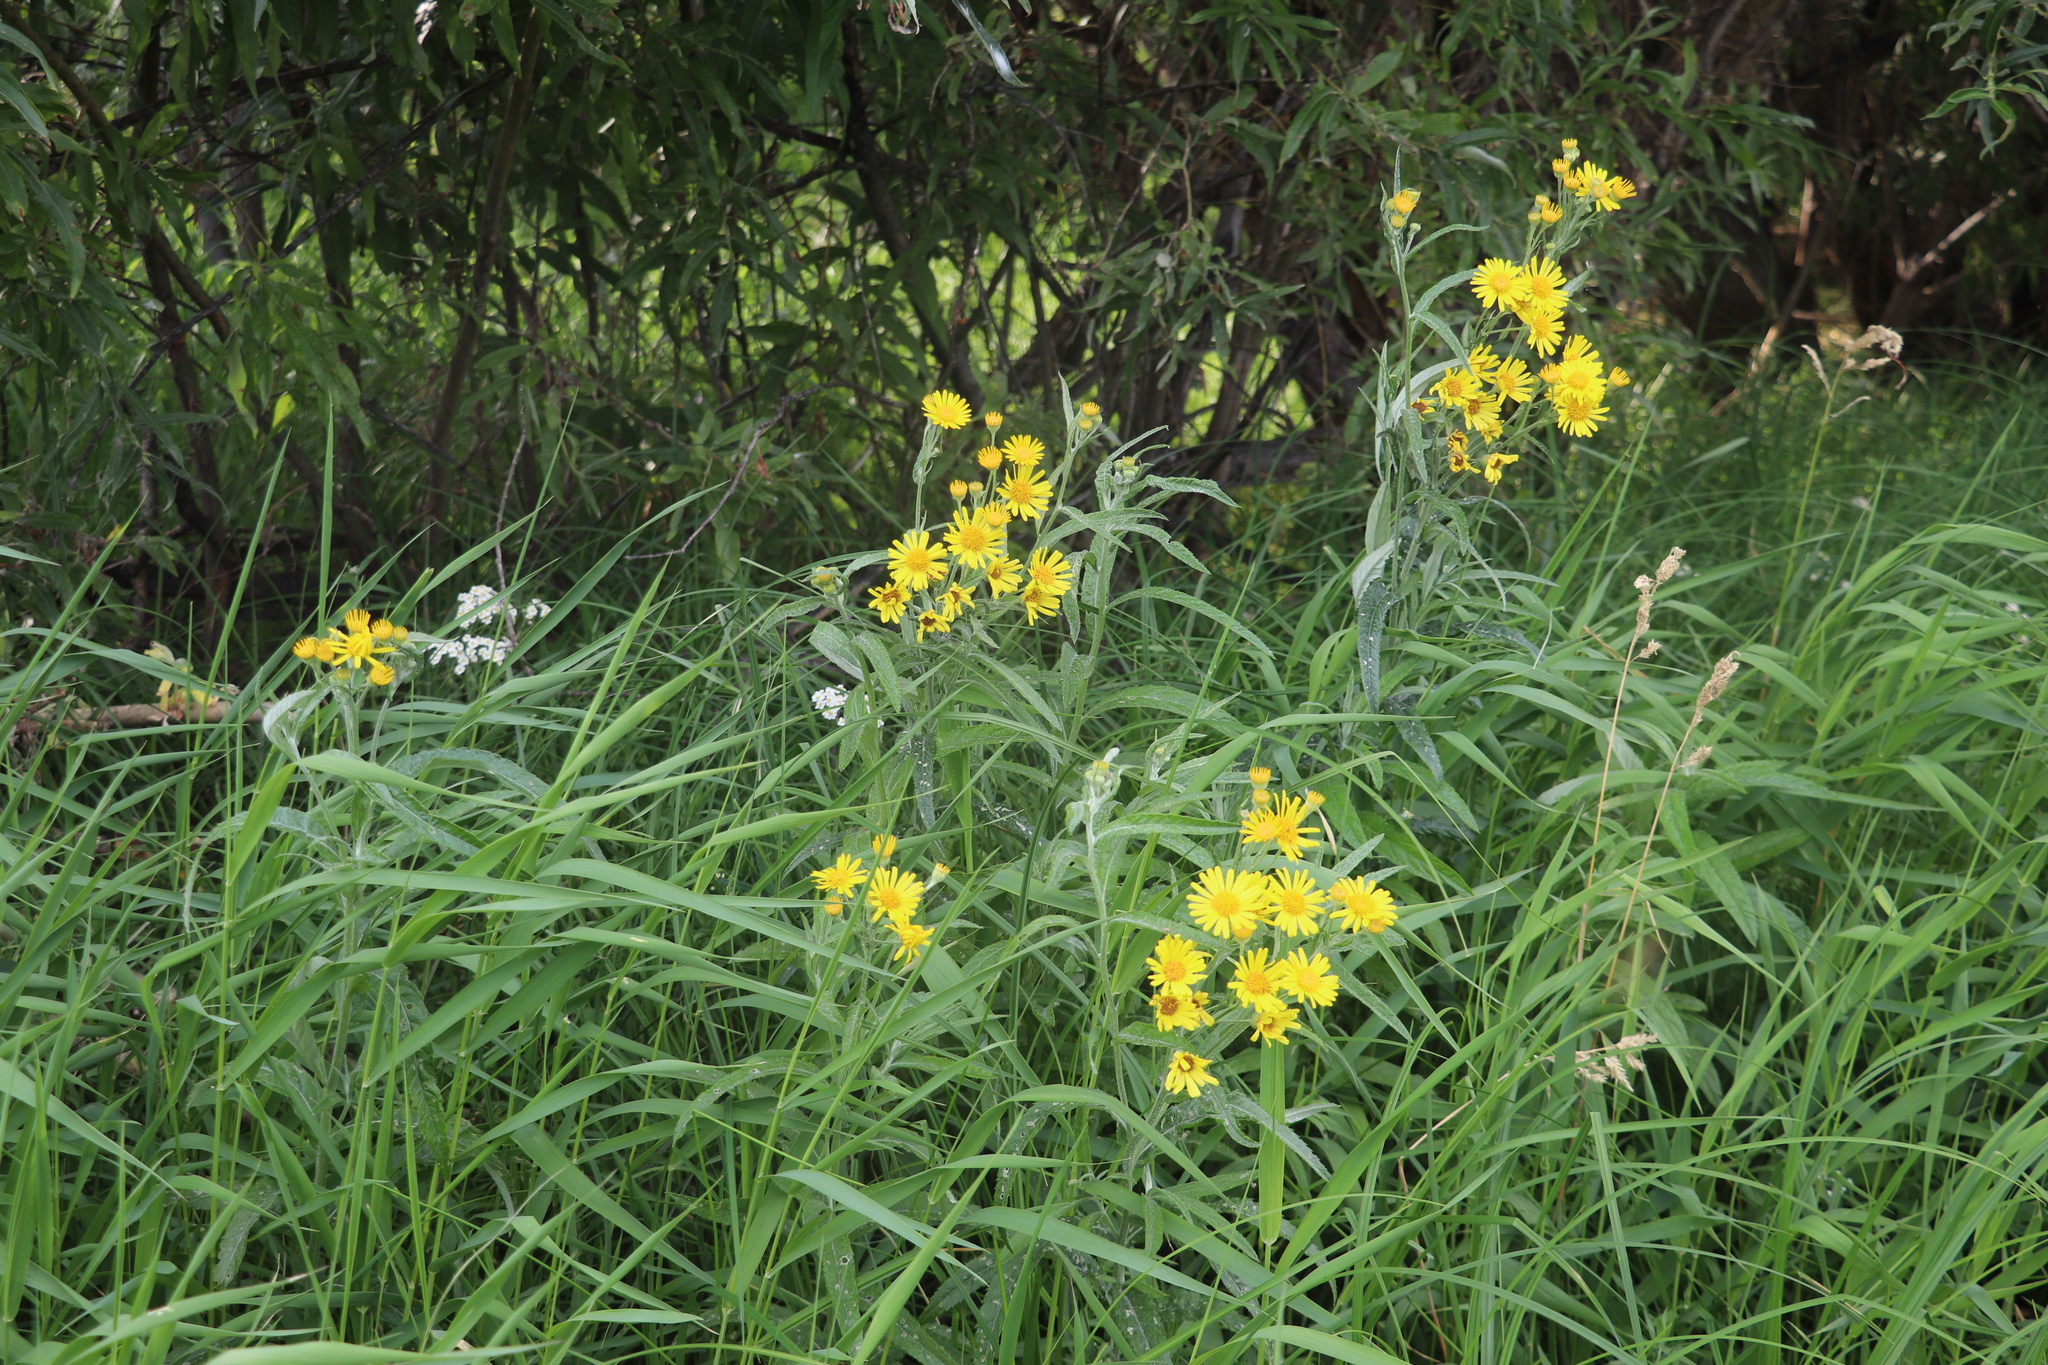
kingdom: Plantae
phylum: Tracheophyta
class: Magnoliopsida
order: Asterales
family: Asteraceae
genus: Jacobaea
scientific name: Jacobaea paludosa
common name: Fen ragwort
